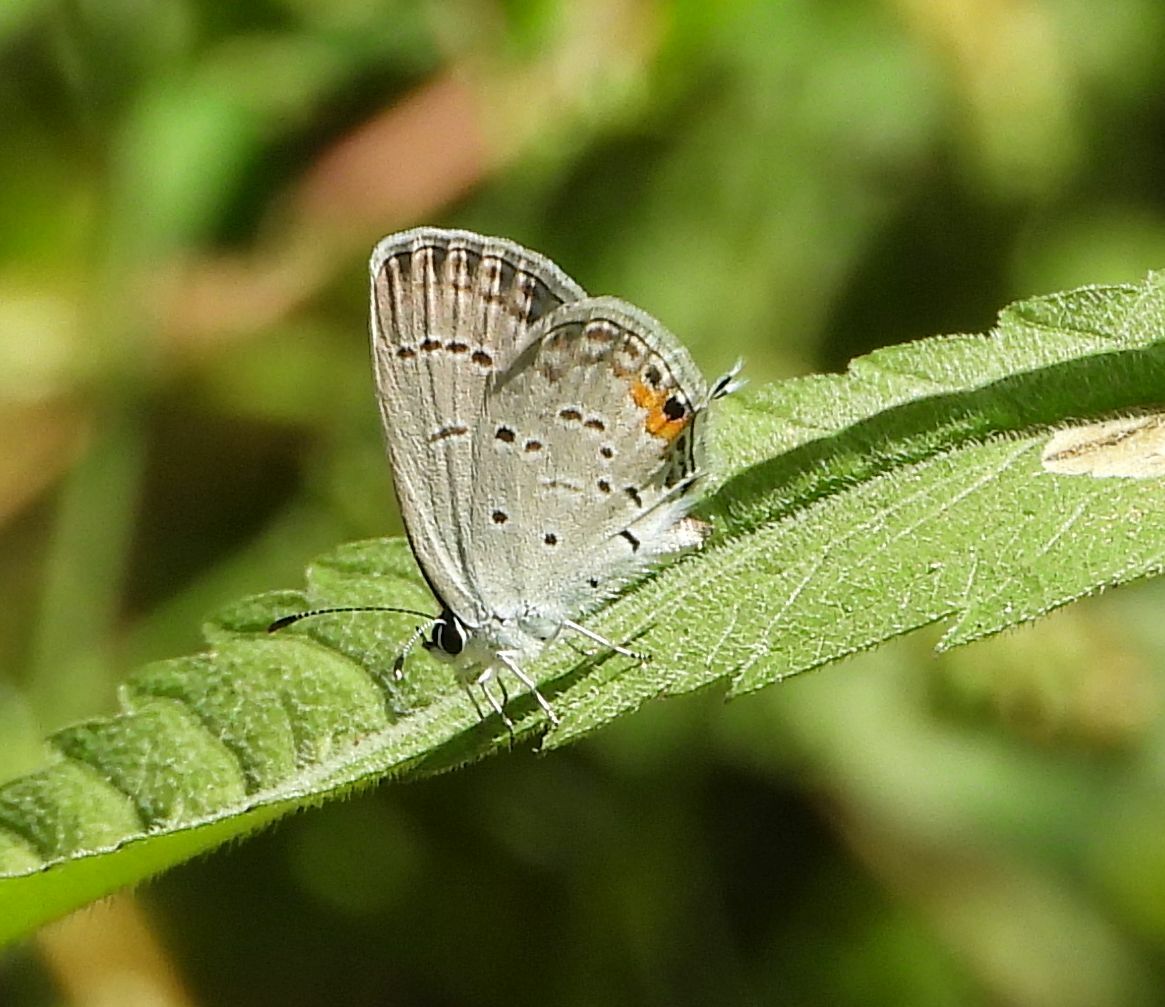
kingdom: Animalia
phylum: Arthropoda
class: Insecta
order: Lepidoptera
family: Lycaenidae
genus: Elkalyce
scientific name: Elkalyce comyntas
